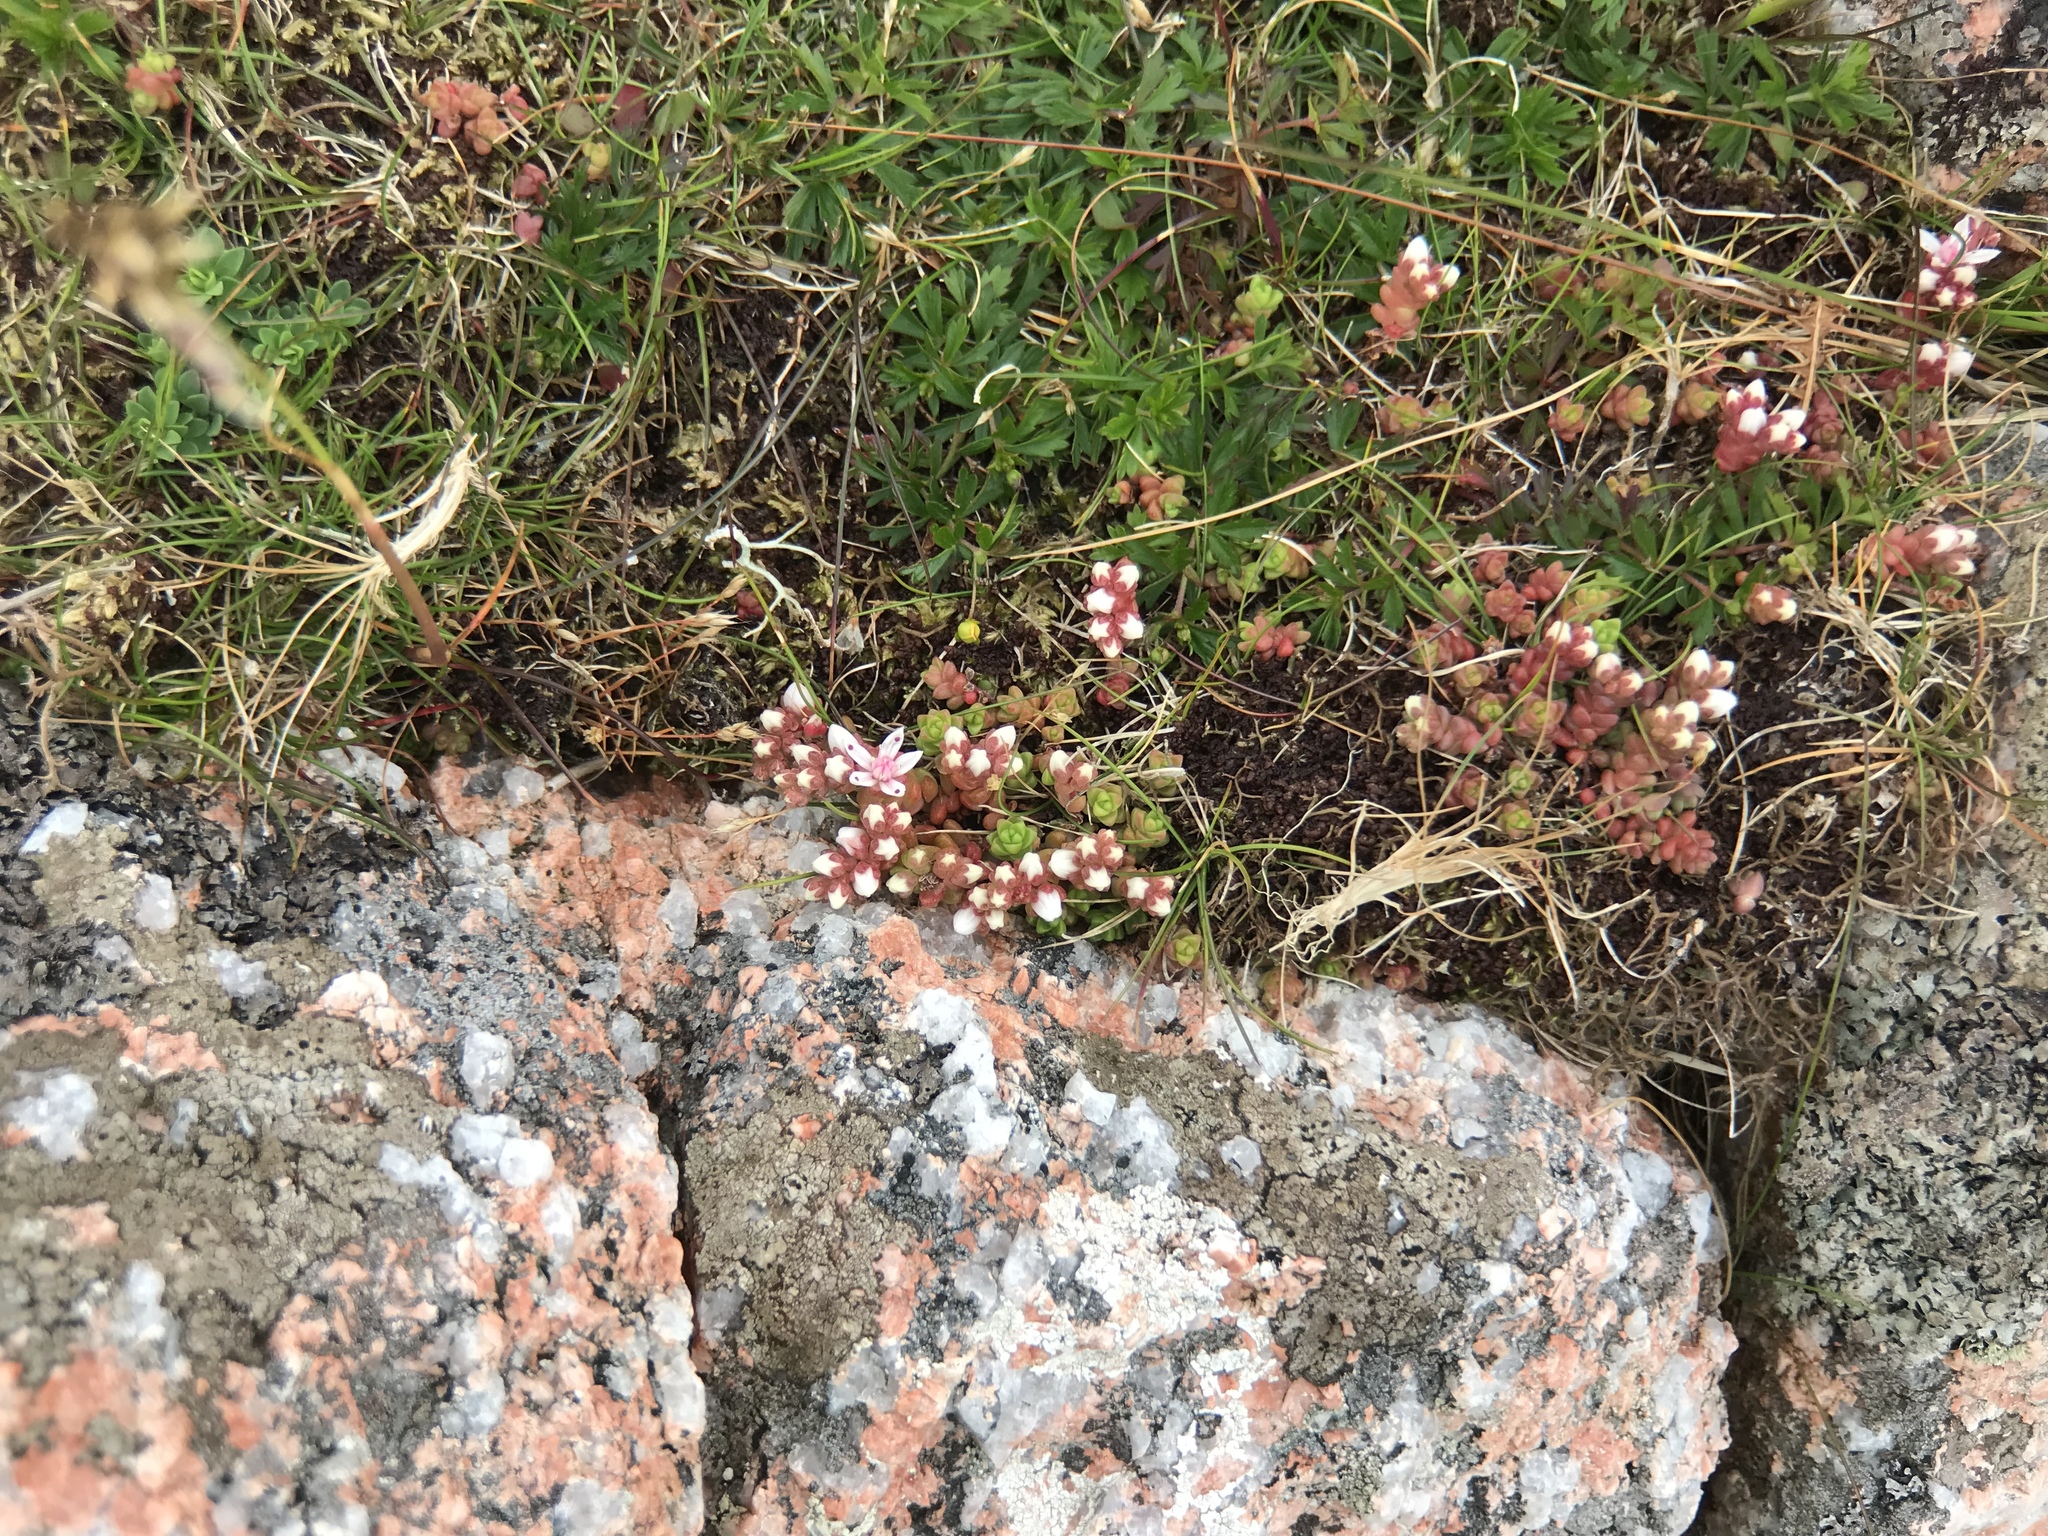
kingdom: Plantae
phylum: Tracheophyta
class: Magnoliopsida
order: Saxifragales
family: Crassulaceae
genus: Sedum
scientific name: Sedum anglicum
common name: English stonecrop
